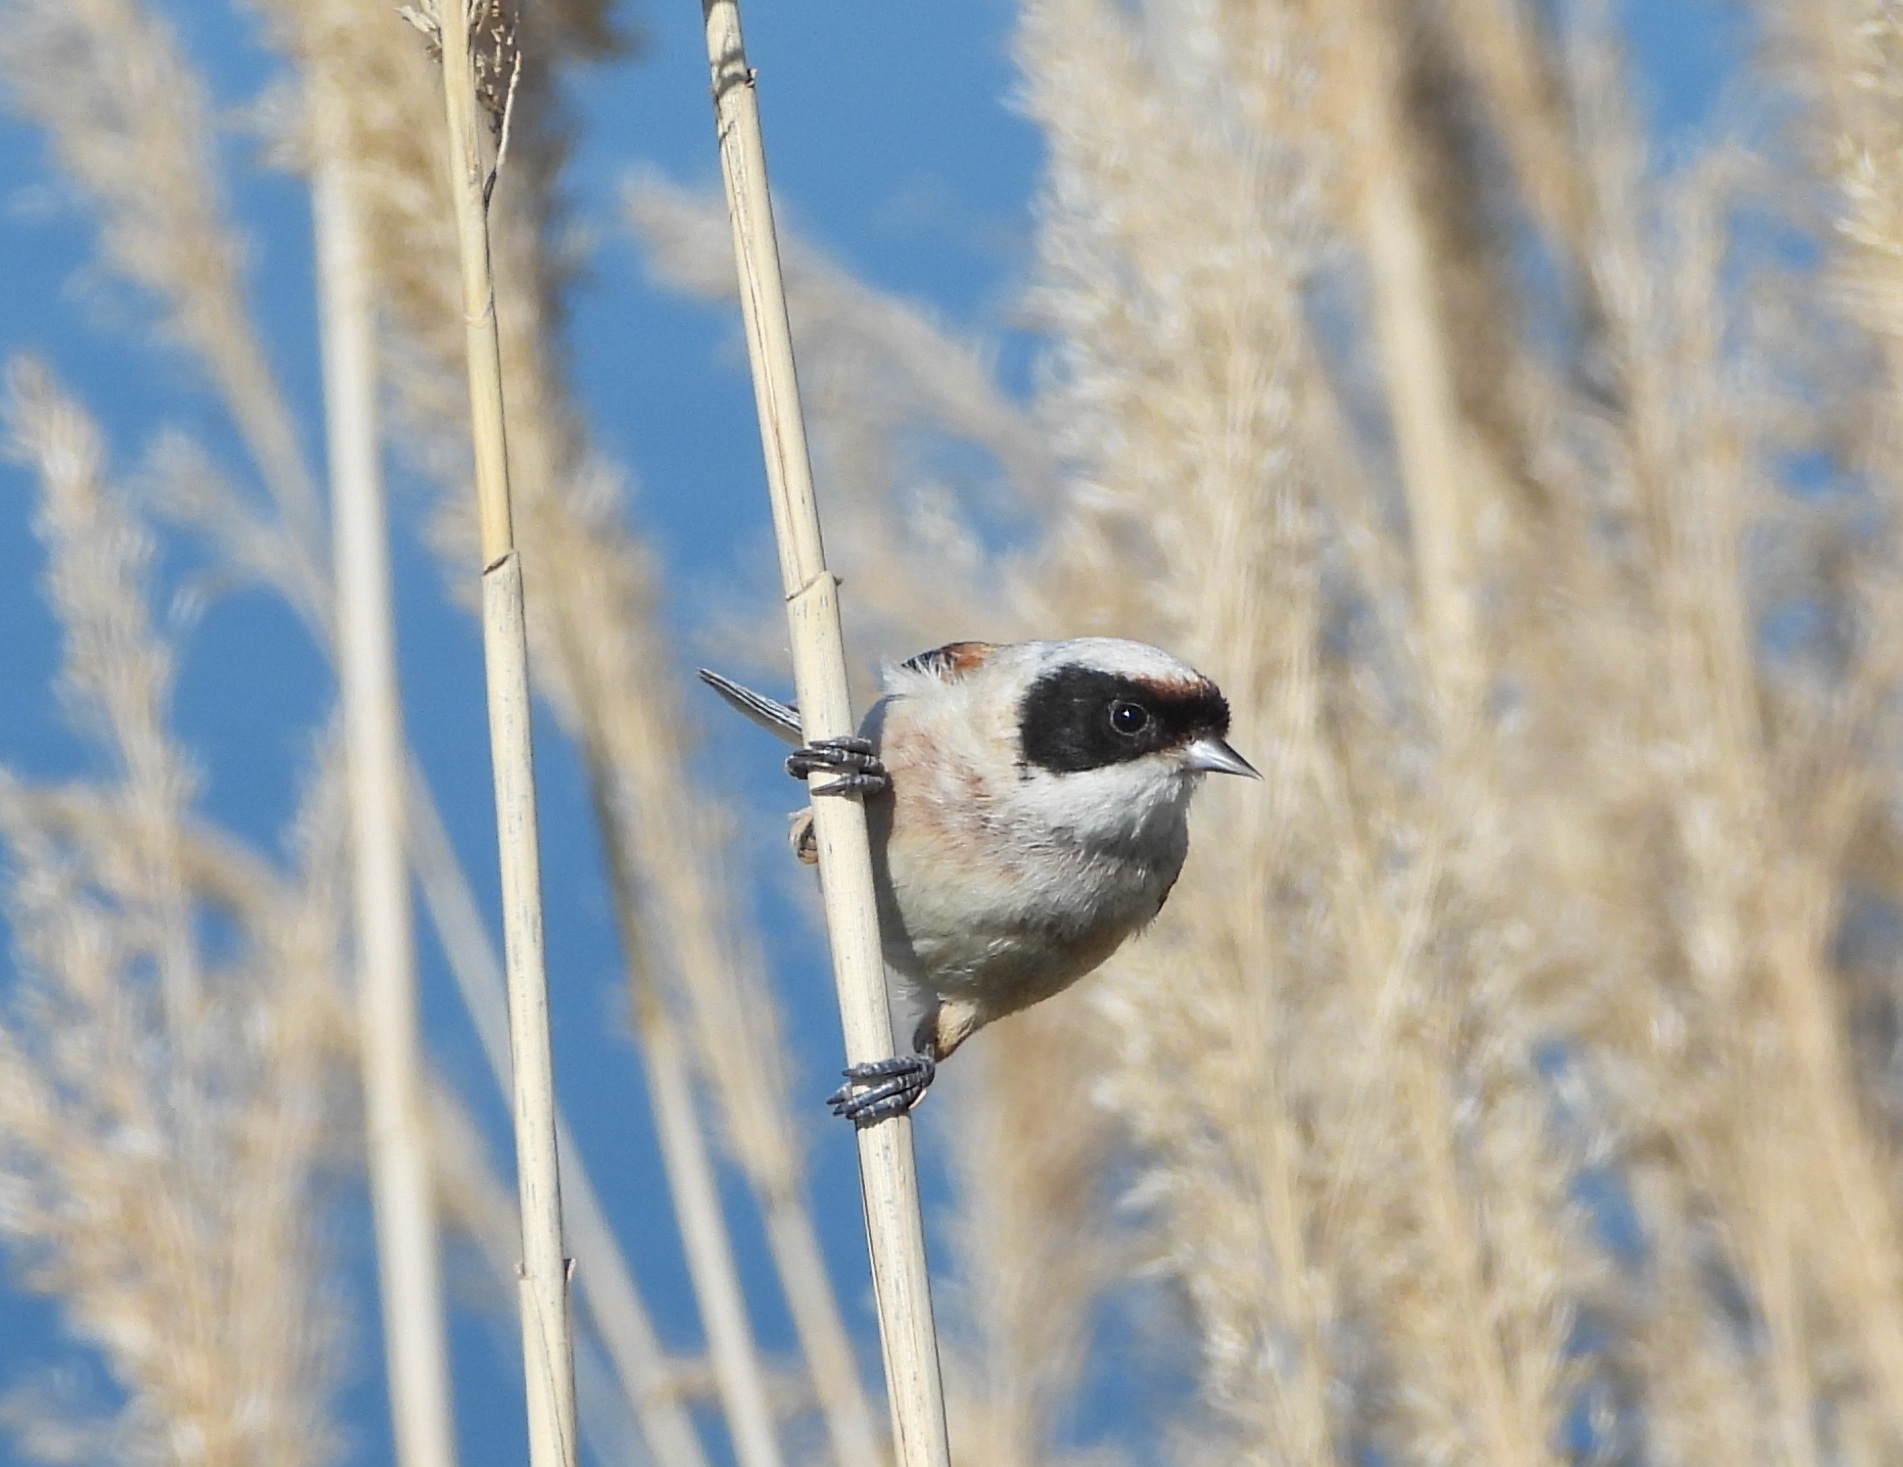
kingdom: Animalia
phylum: Chordata
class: Aves
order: Passeriformes
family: Remizidae
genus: Remiz
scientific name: Remiz pendulinus
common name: Eurasian penduline tit
